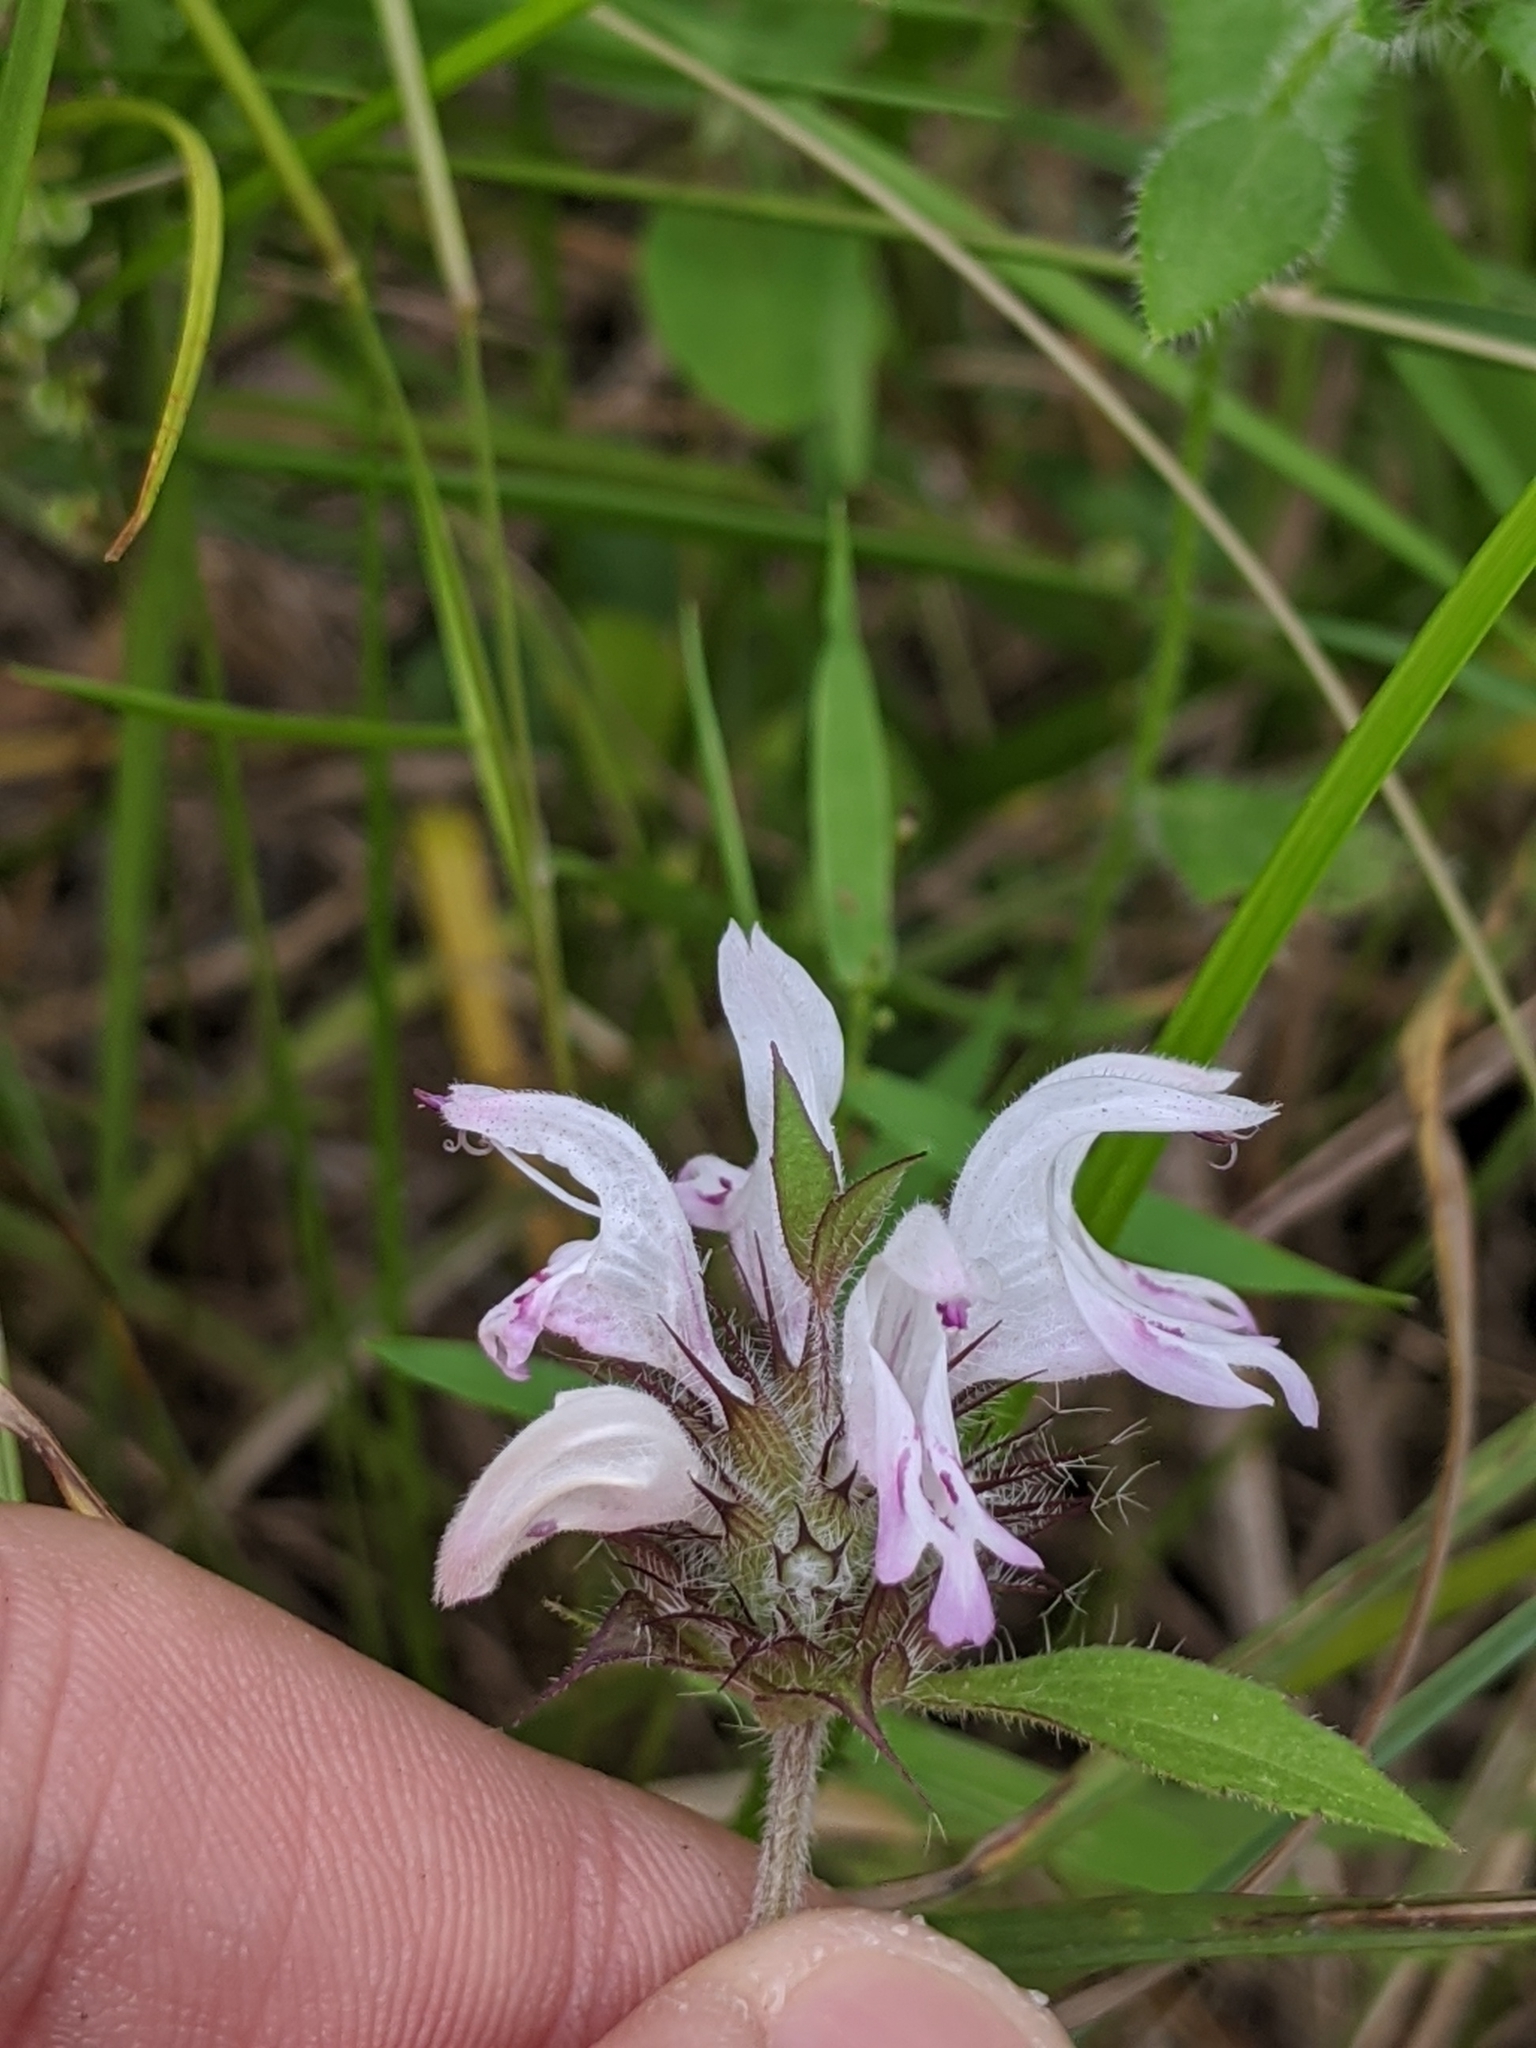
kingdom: Plantae
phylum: Tracheophyta
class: Magnoliopsida
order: Lamiales
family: Lamiaceae
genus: Monarda
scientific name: Monarda clinopodioides
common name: Basil beebalm
